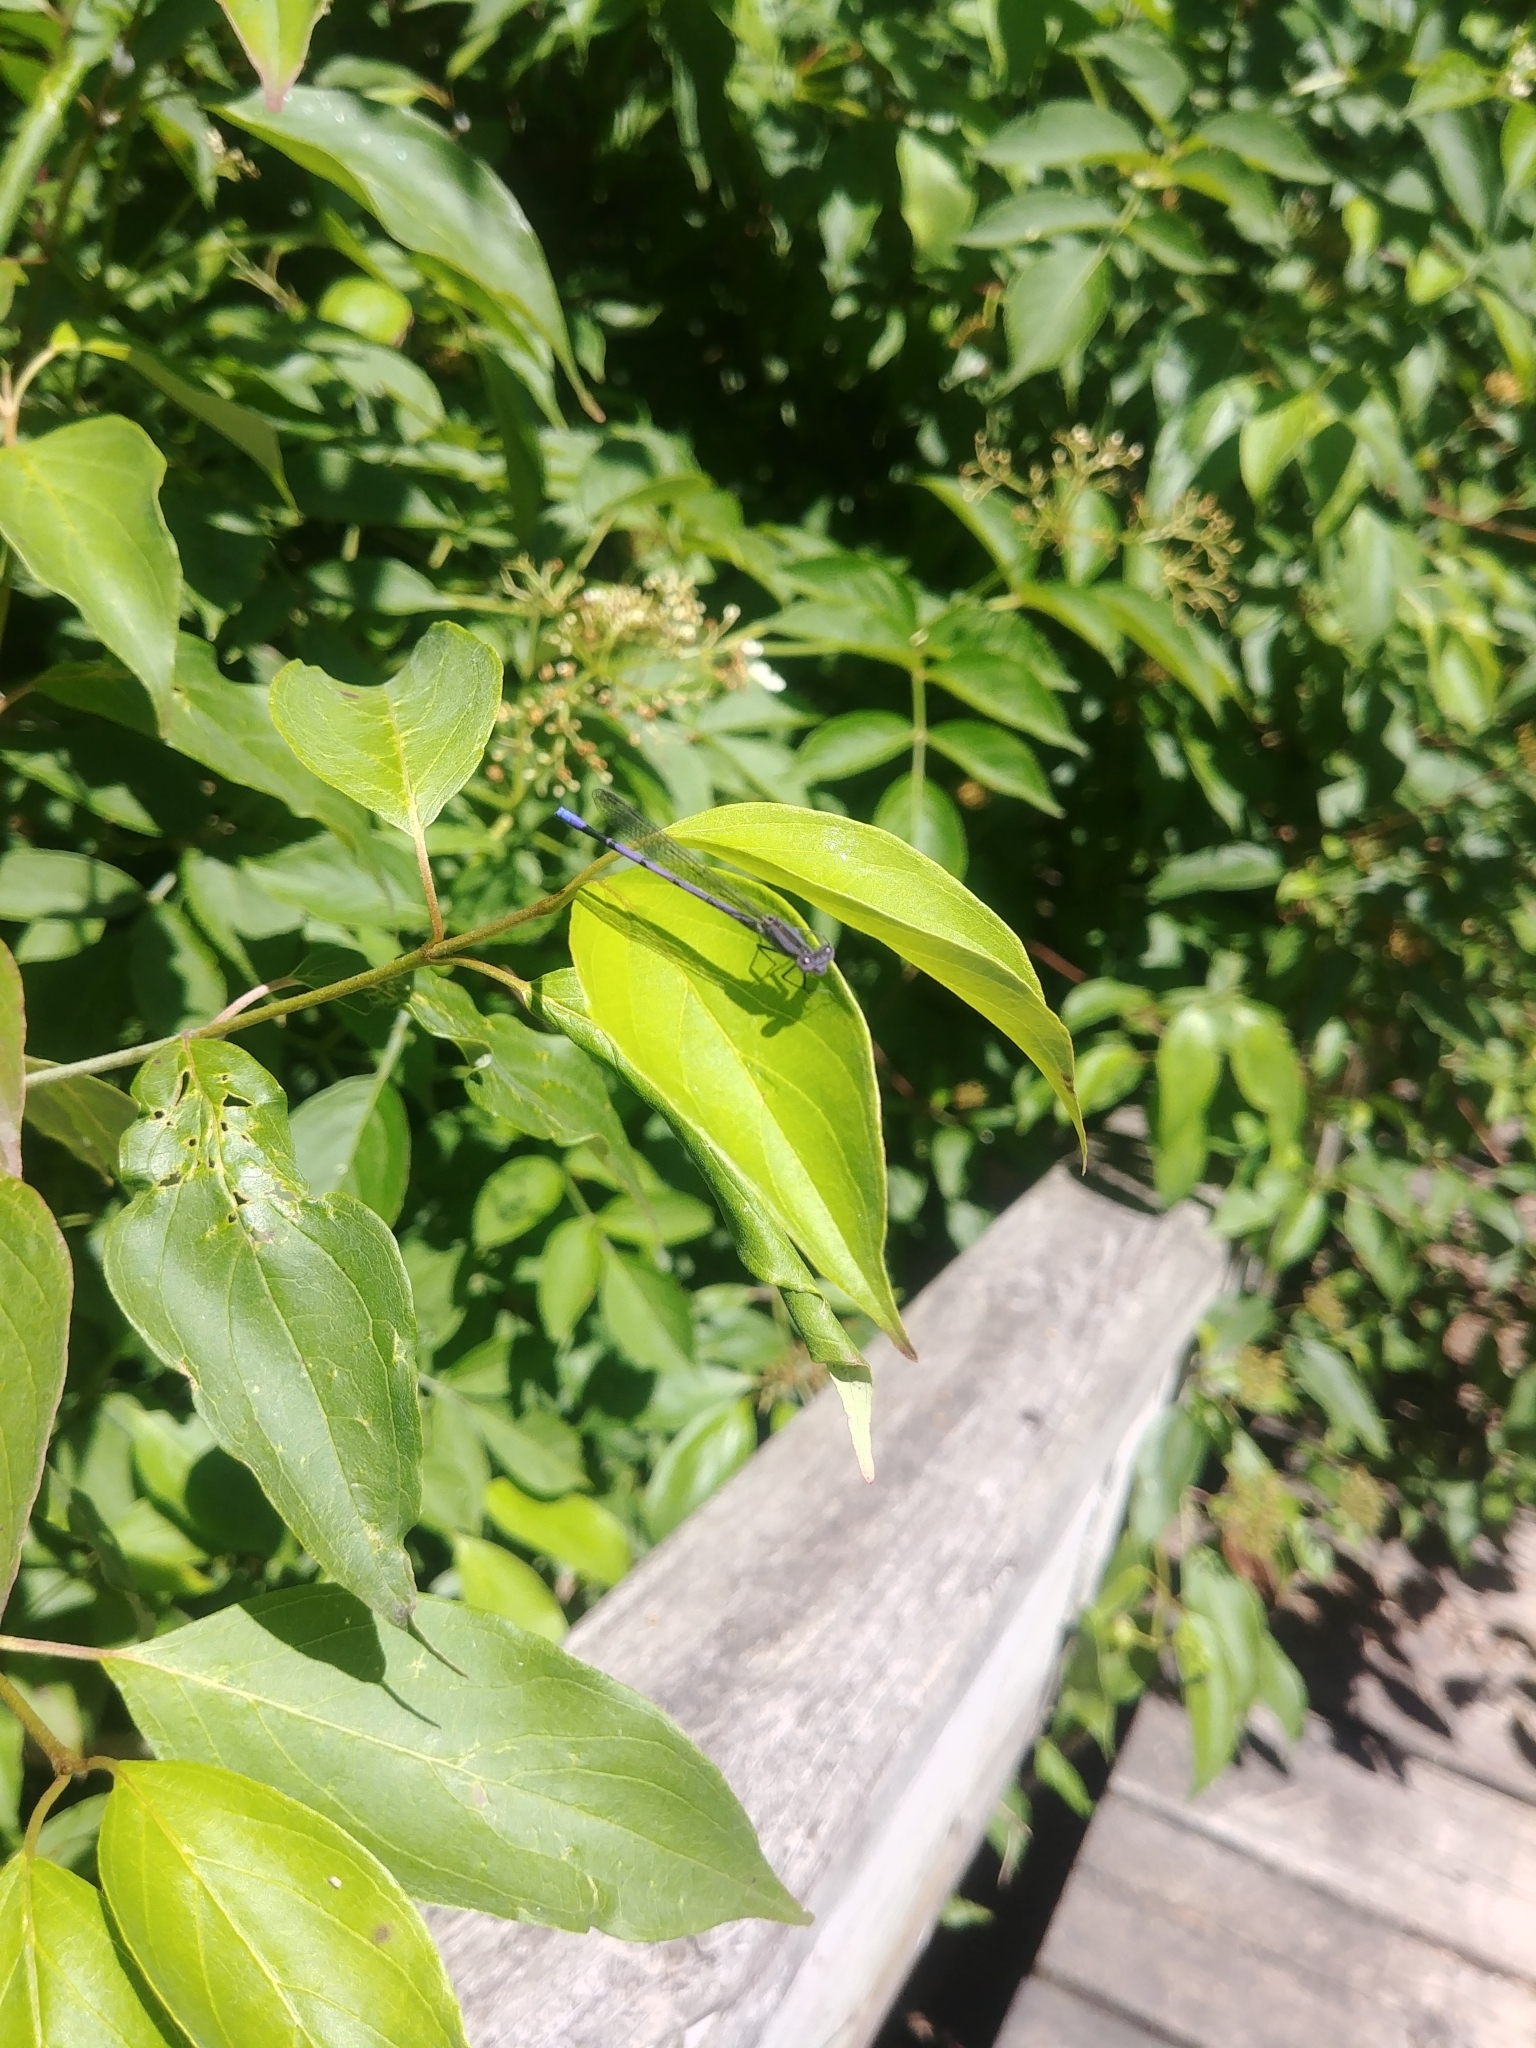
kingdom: Animalia
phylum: Arthropoda
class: Insecta
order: Odonata
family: Coenagrionidae
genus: Argia
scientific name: Argia fumipennis
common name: Variable dancer
